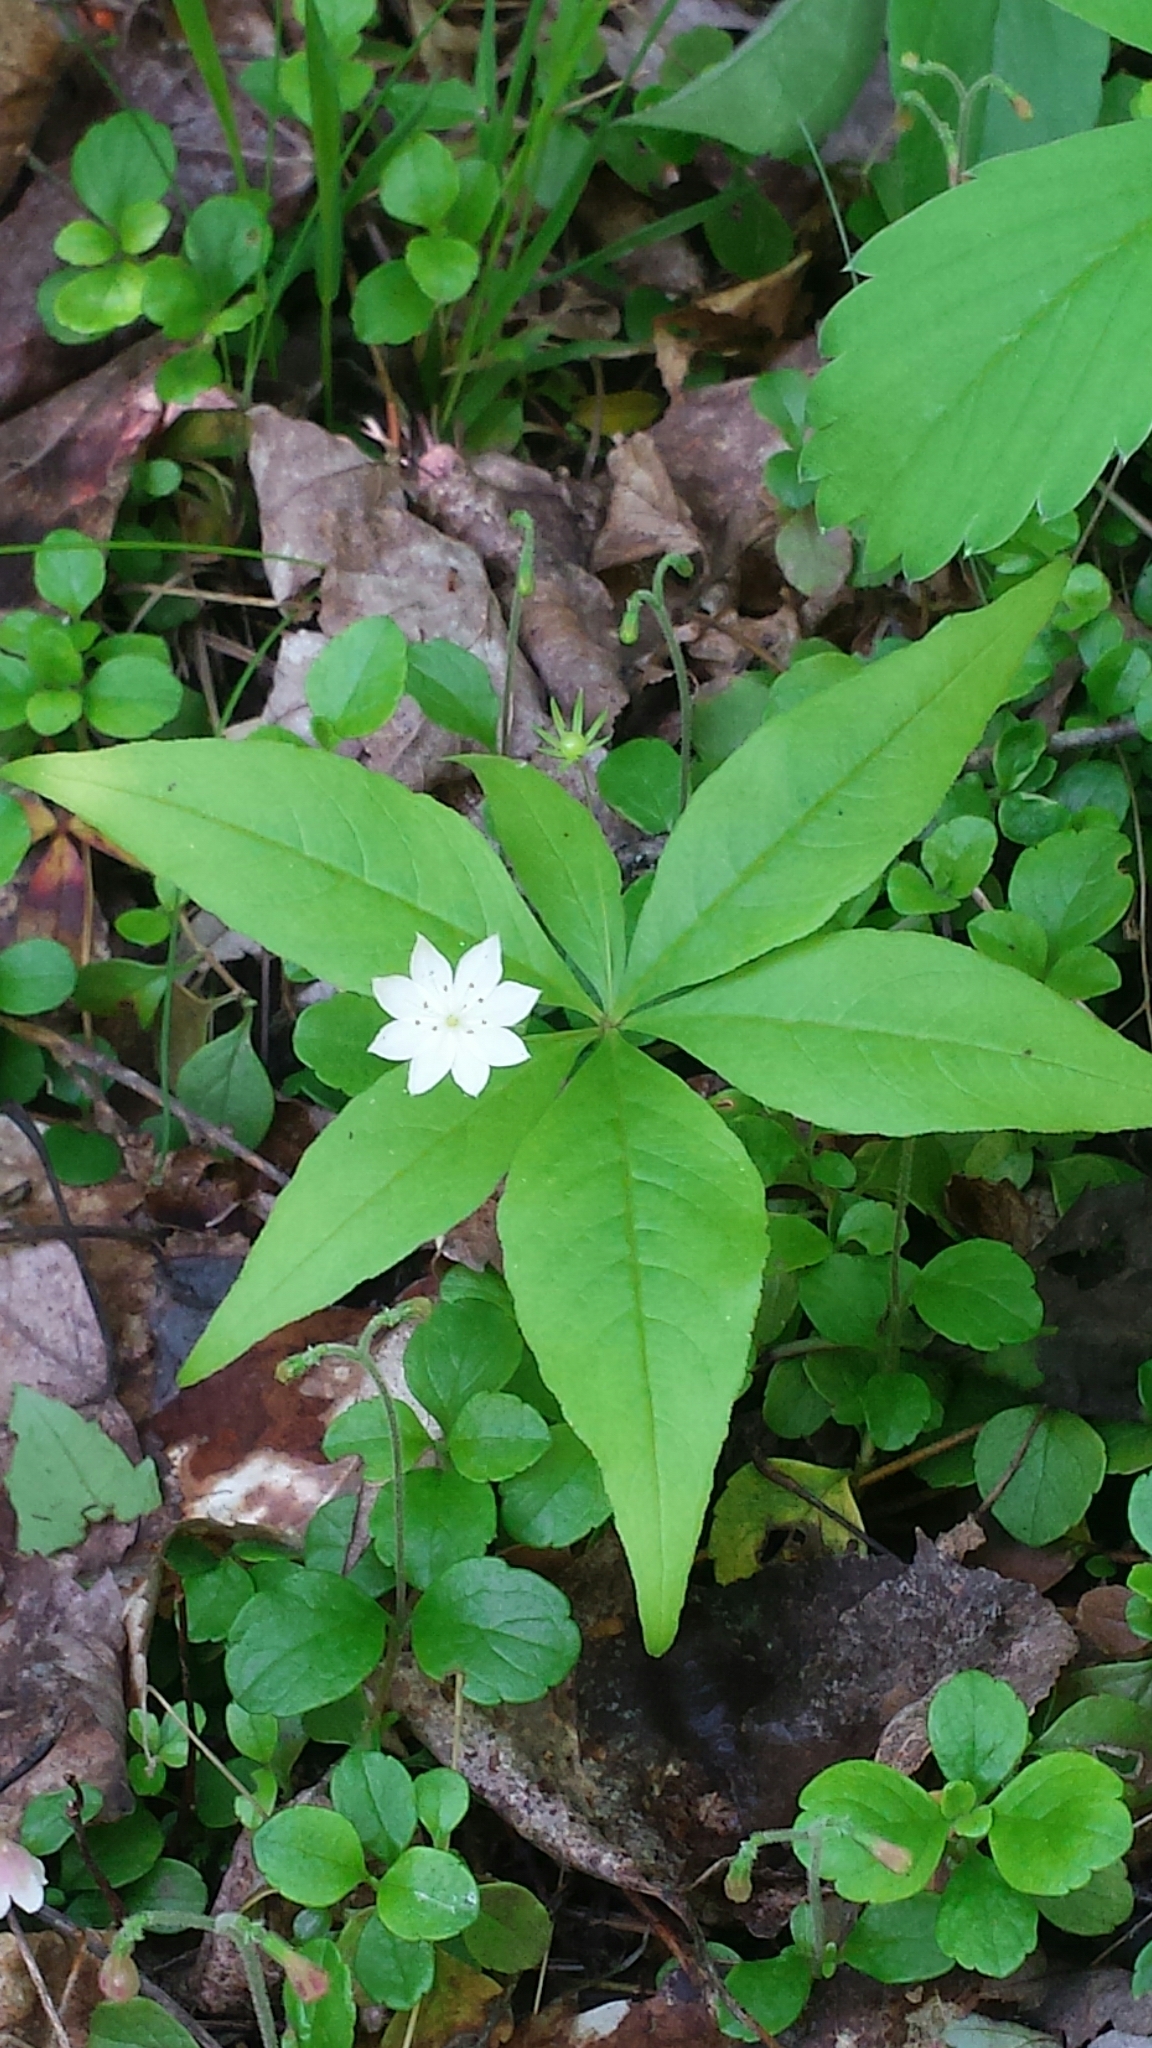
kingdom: Plantae
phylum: Tracheophyta
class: Magnoliopsida
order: Ericales
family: Primulaceae
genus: Lysimachia
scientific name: Lysimachia borealis
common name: American starflower
